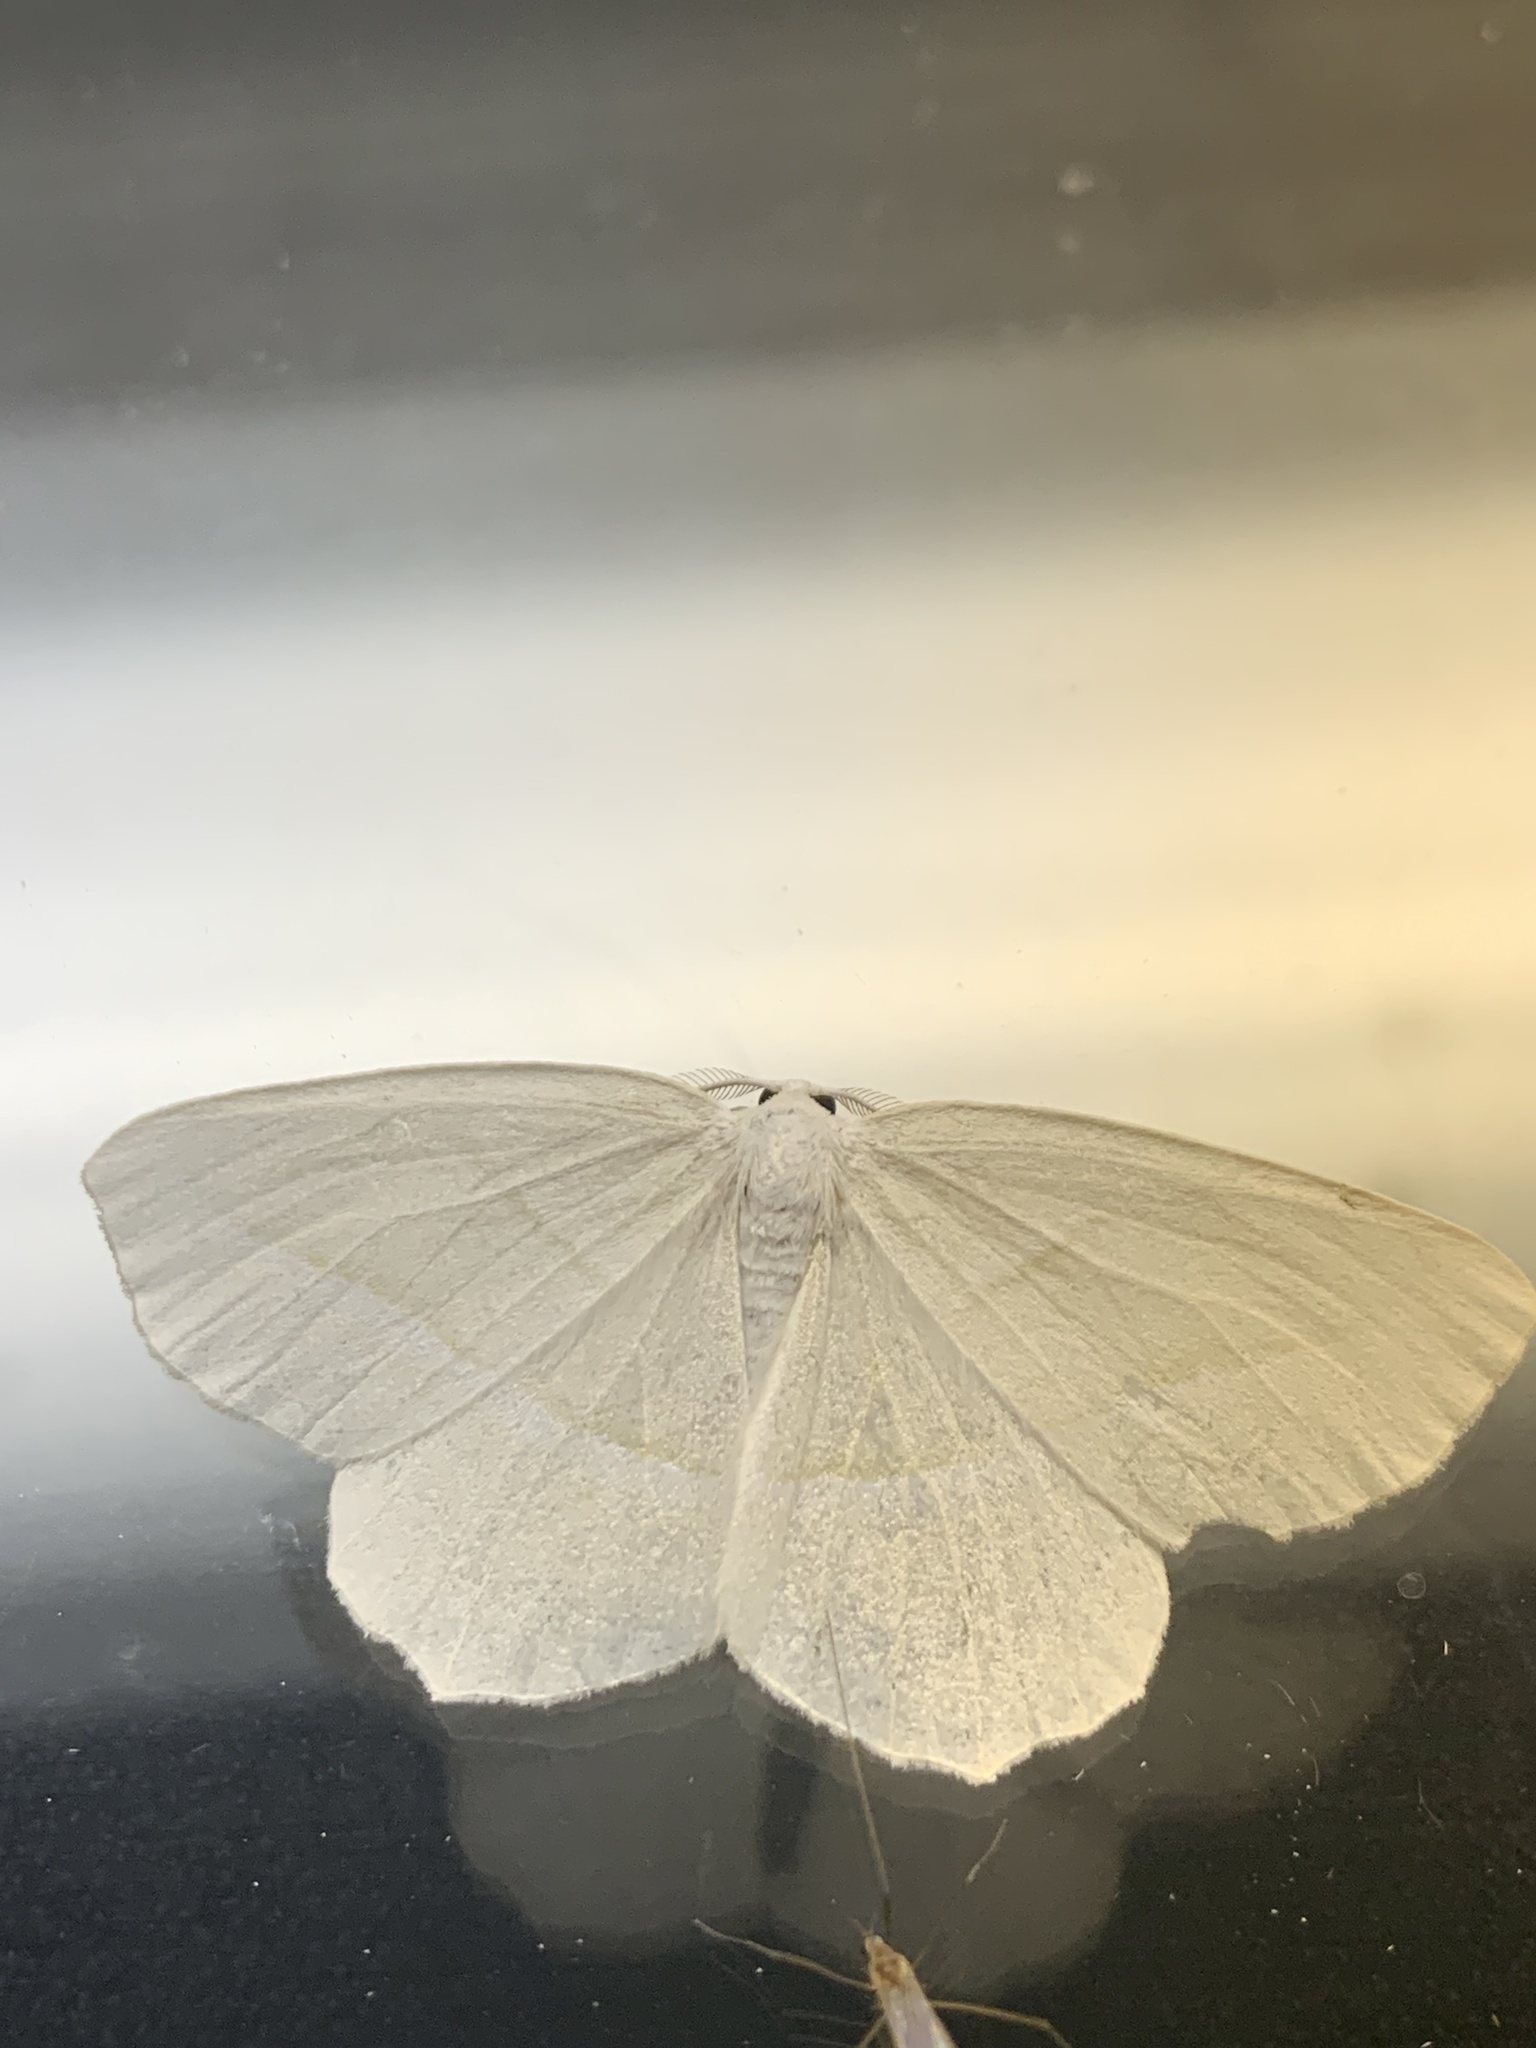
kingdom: Animalia
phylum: Arthropoda
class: Insecta
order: Lepidoptera
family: Geometridae
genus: Campaea
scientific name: Campaea perlata
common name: Fringed looper
